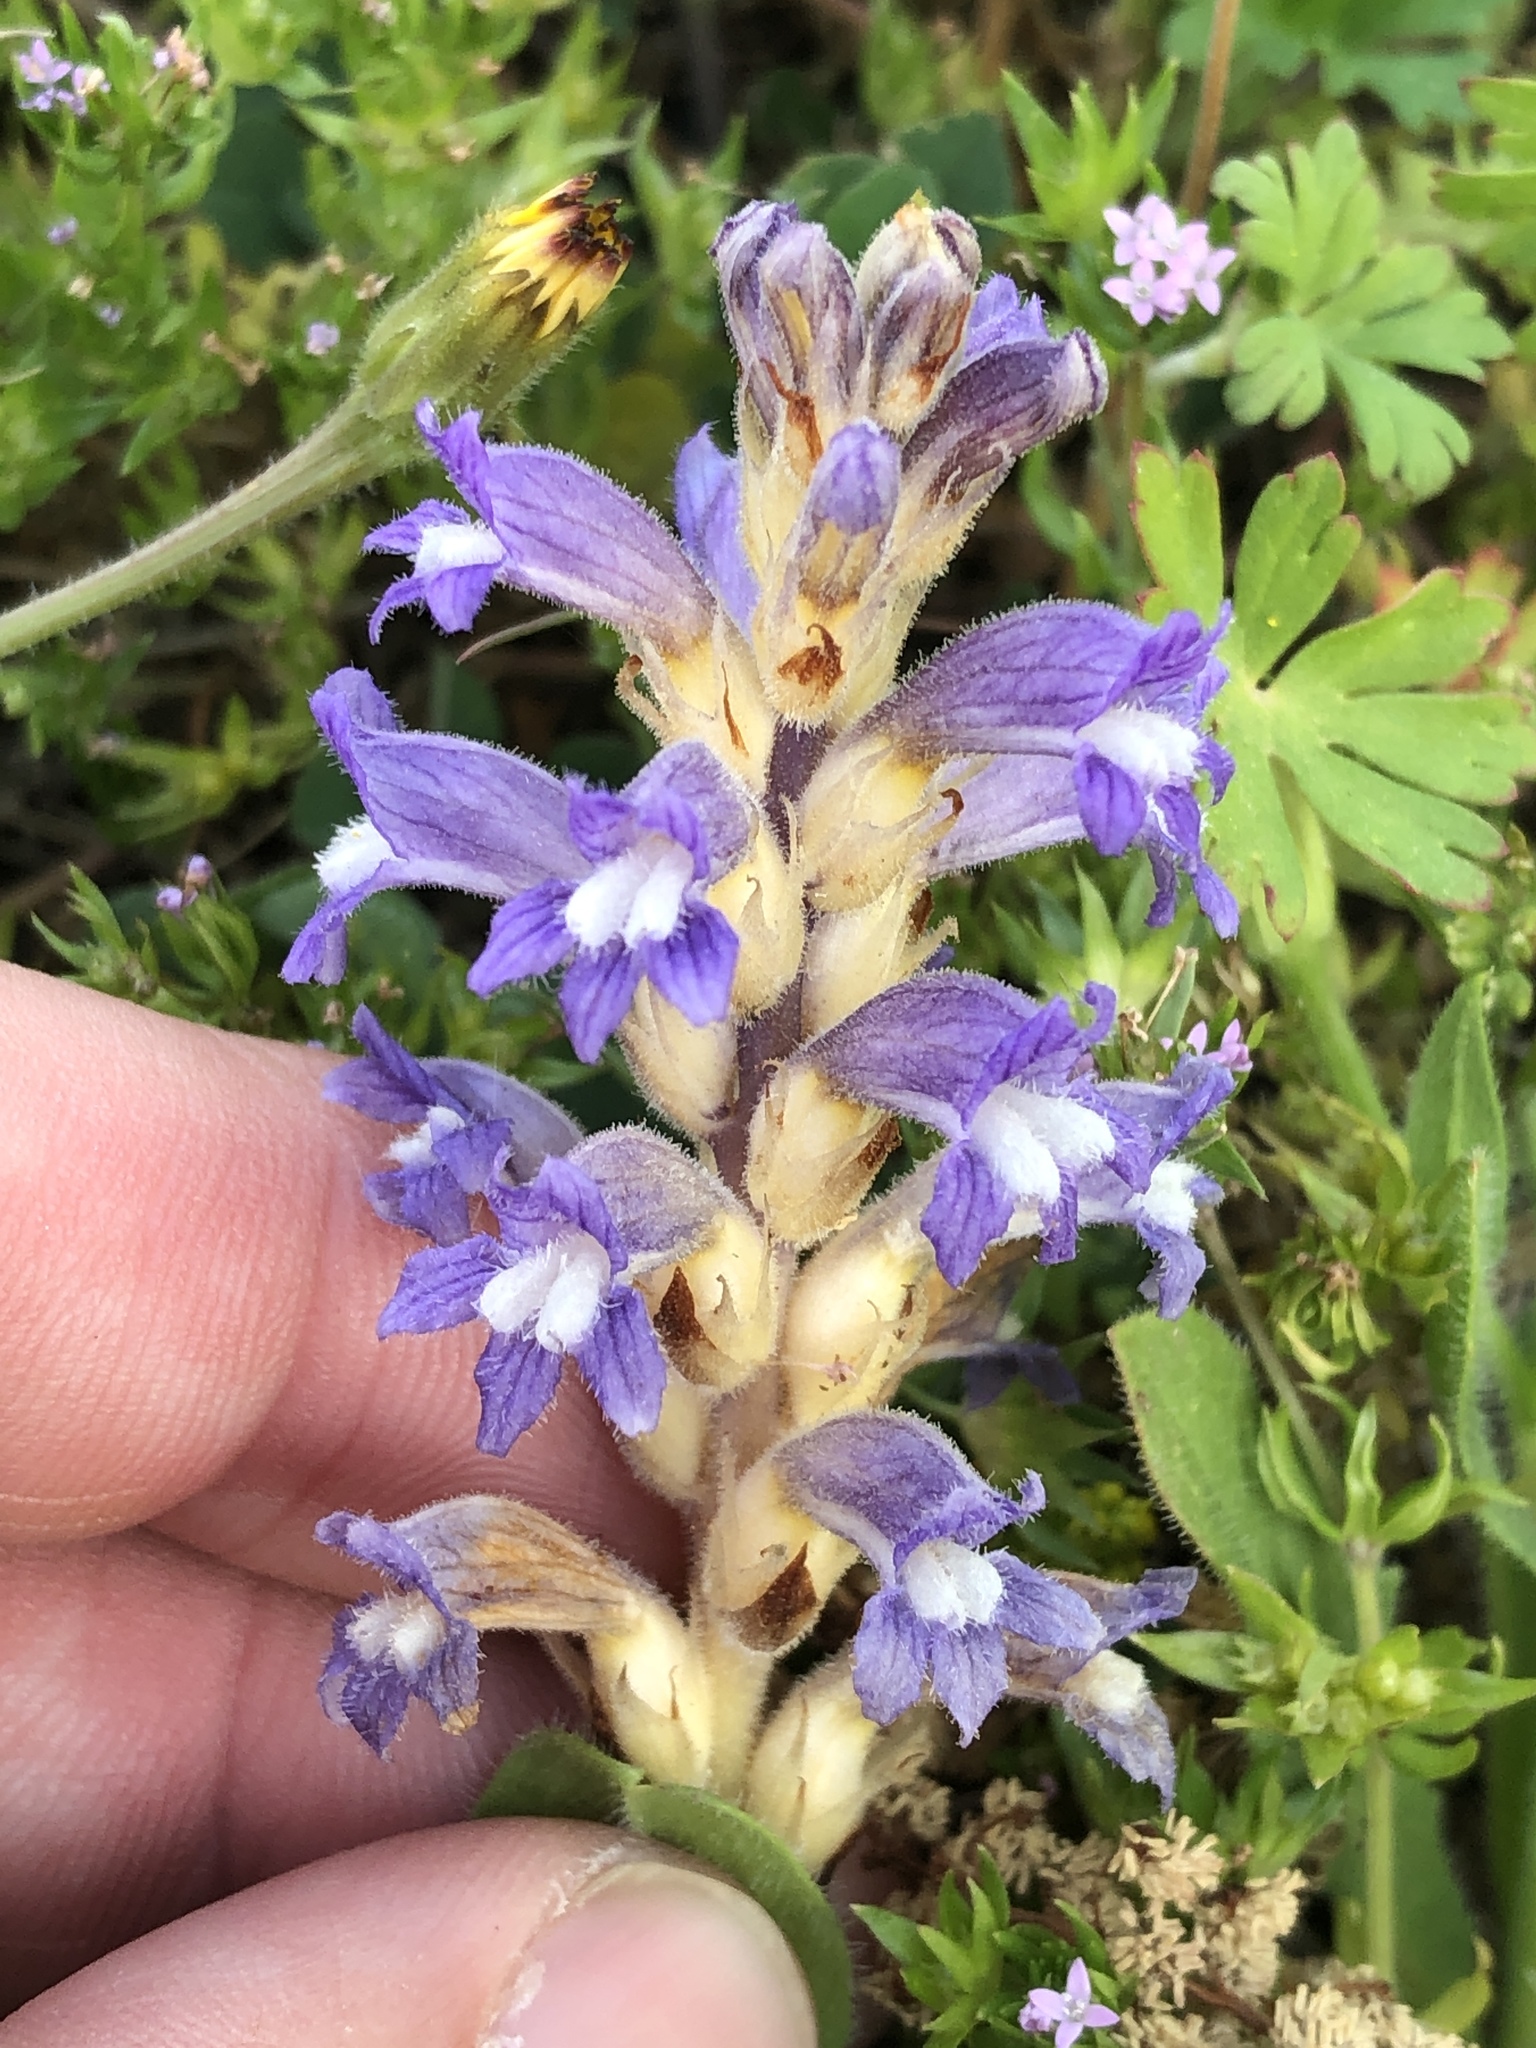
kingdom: Plantae
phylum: Tracheophyta
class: Magnoliopsida
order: Lamiales
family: Orobanchaceae
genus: Phelipanche
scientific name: Phelipanche ramosa
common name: Branched broomrape
